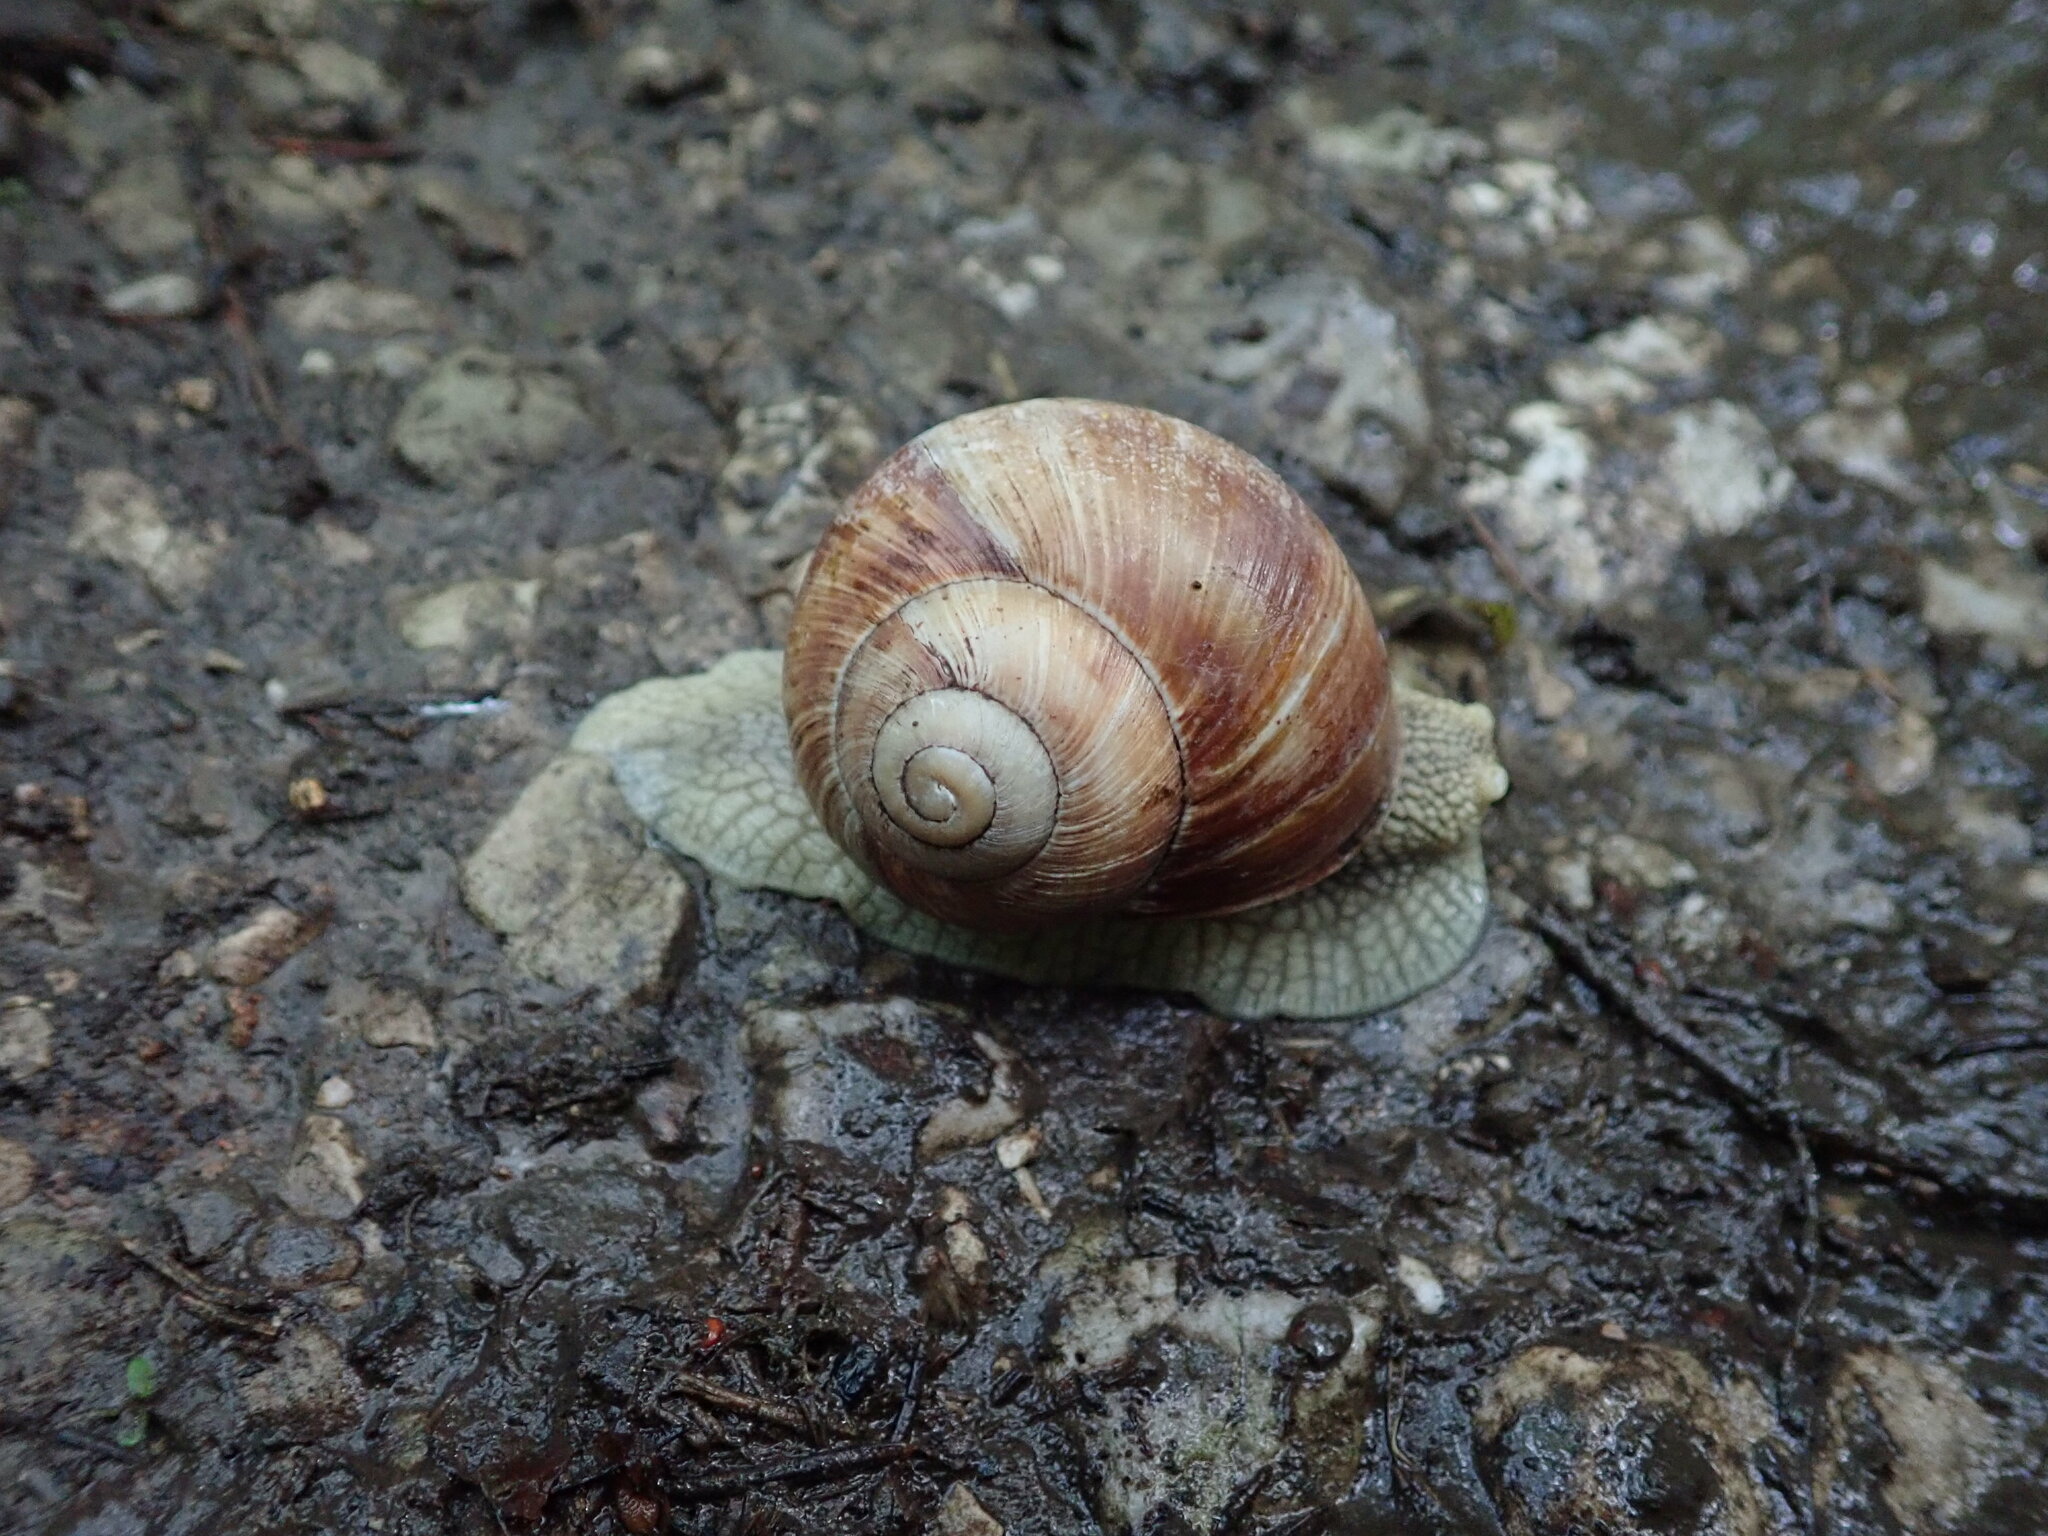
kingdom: Animalia
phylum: Mollusca
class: Gastropoda
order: Stylommatophora
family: Helicidae
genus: Helix
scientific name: Helix pomatia
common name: Roman snail
